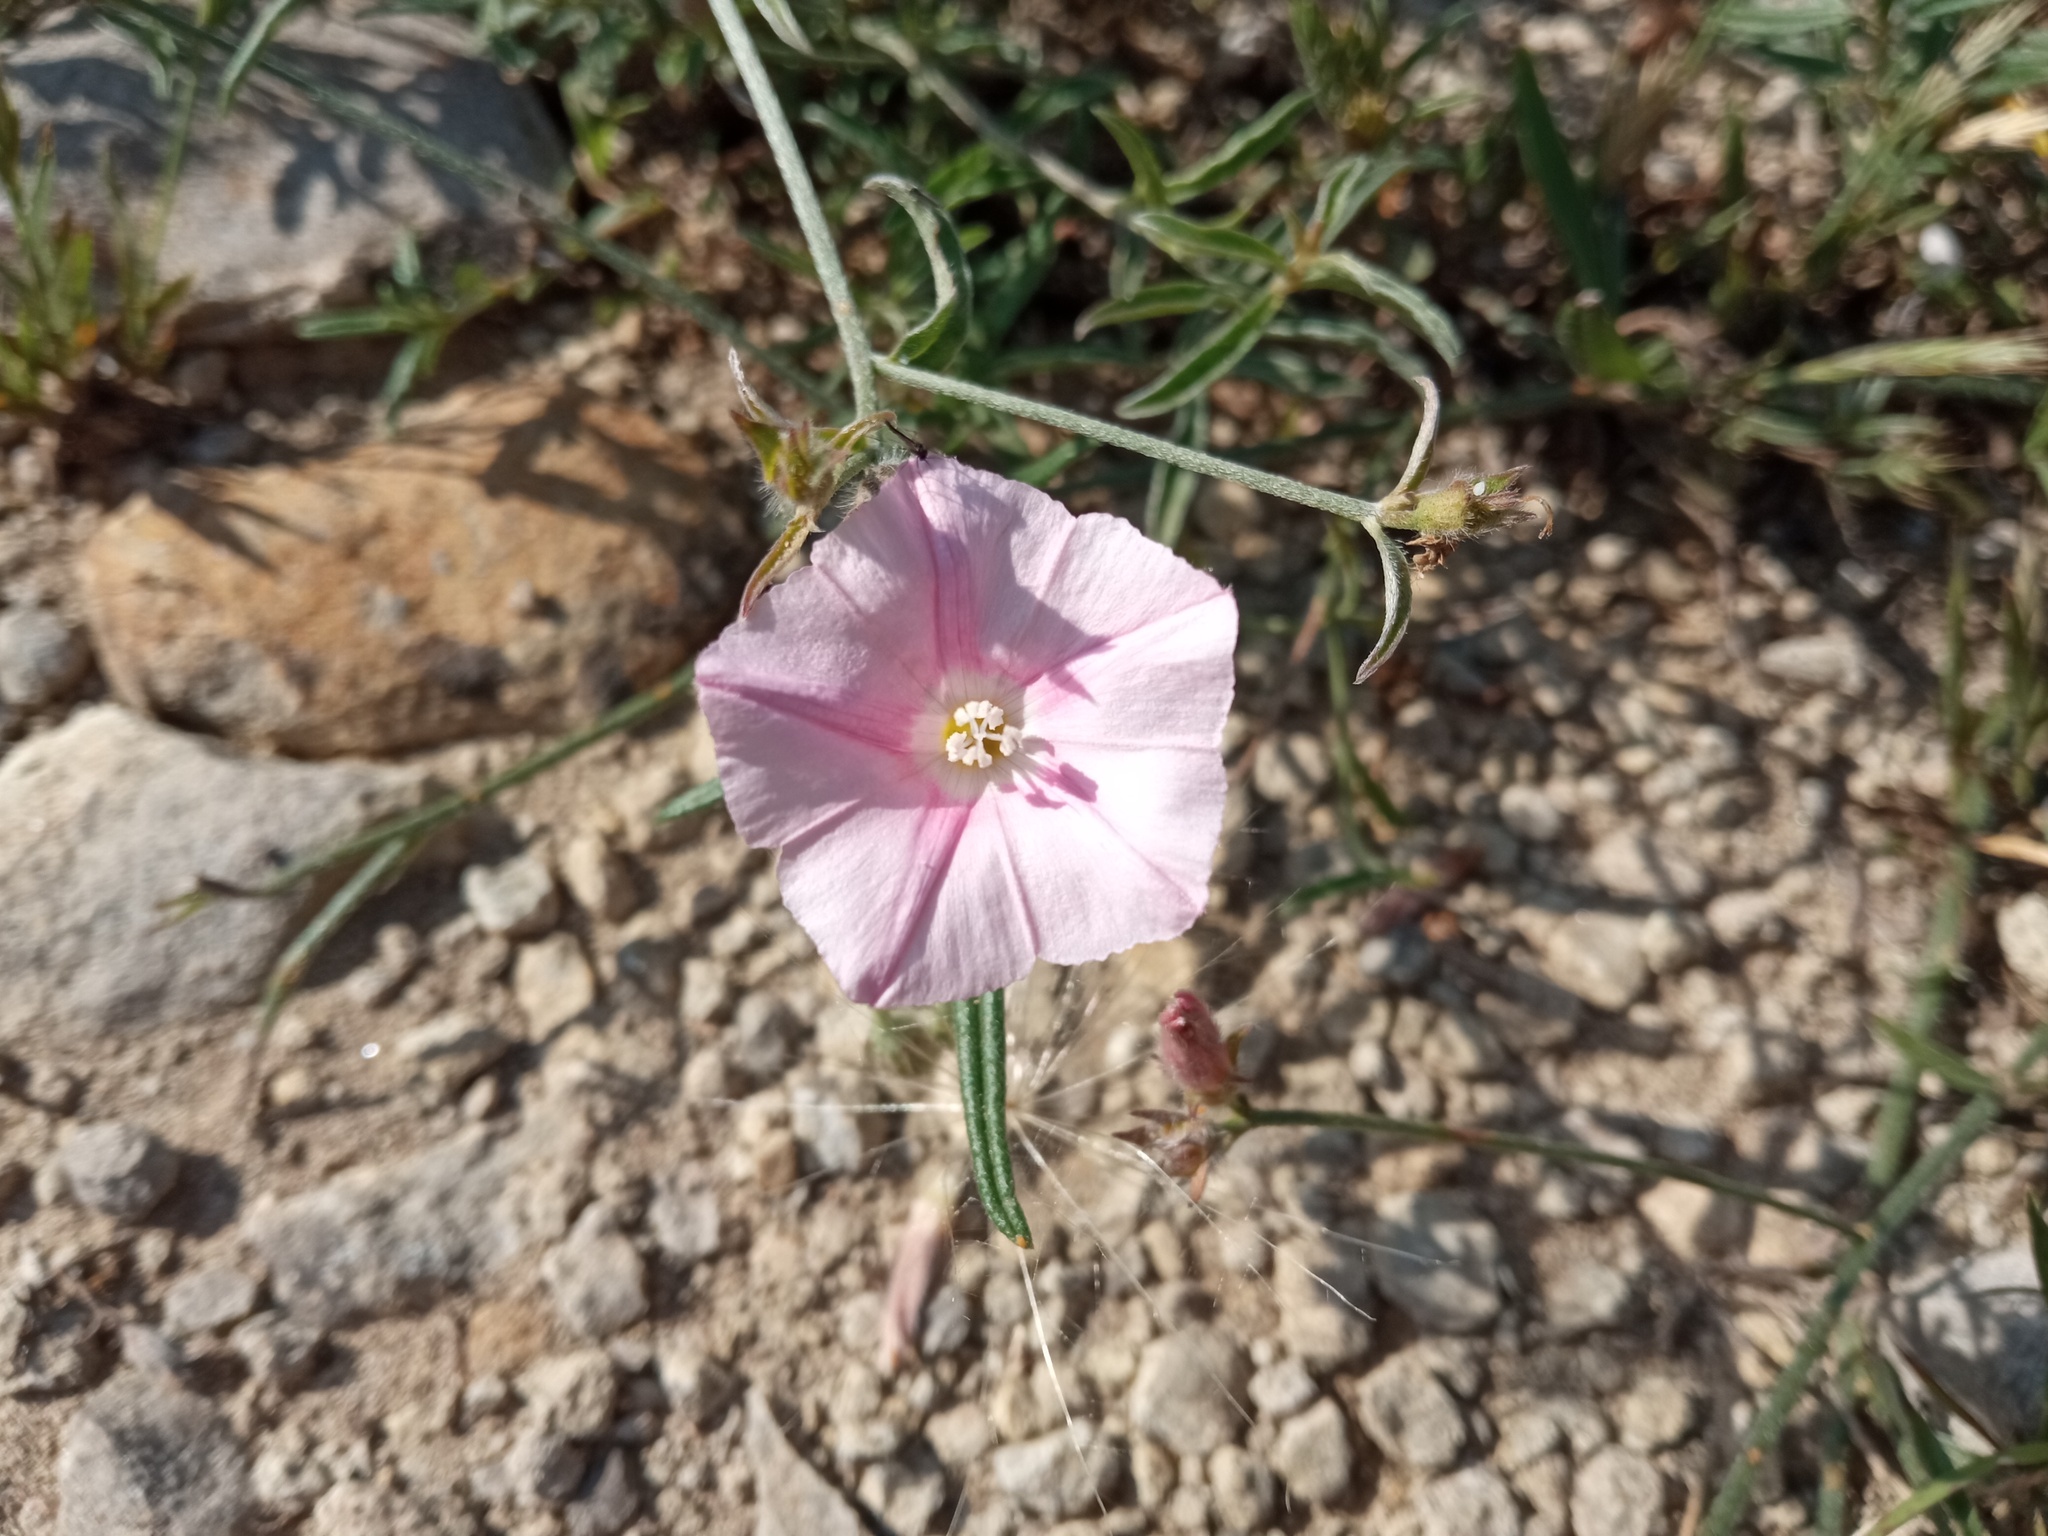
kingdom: Plantae
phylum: Tracheophyta
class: Magnoliopsida
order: Solanales
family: Convolvulaceae
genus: Convolvulus
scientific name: Convolvulus cantabrica
